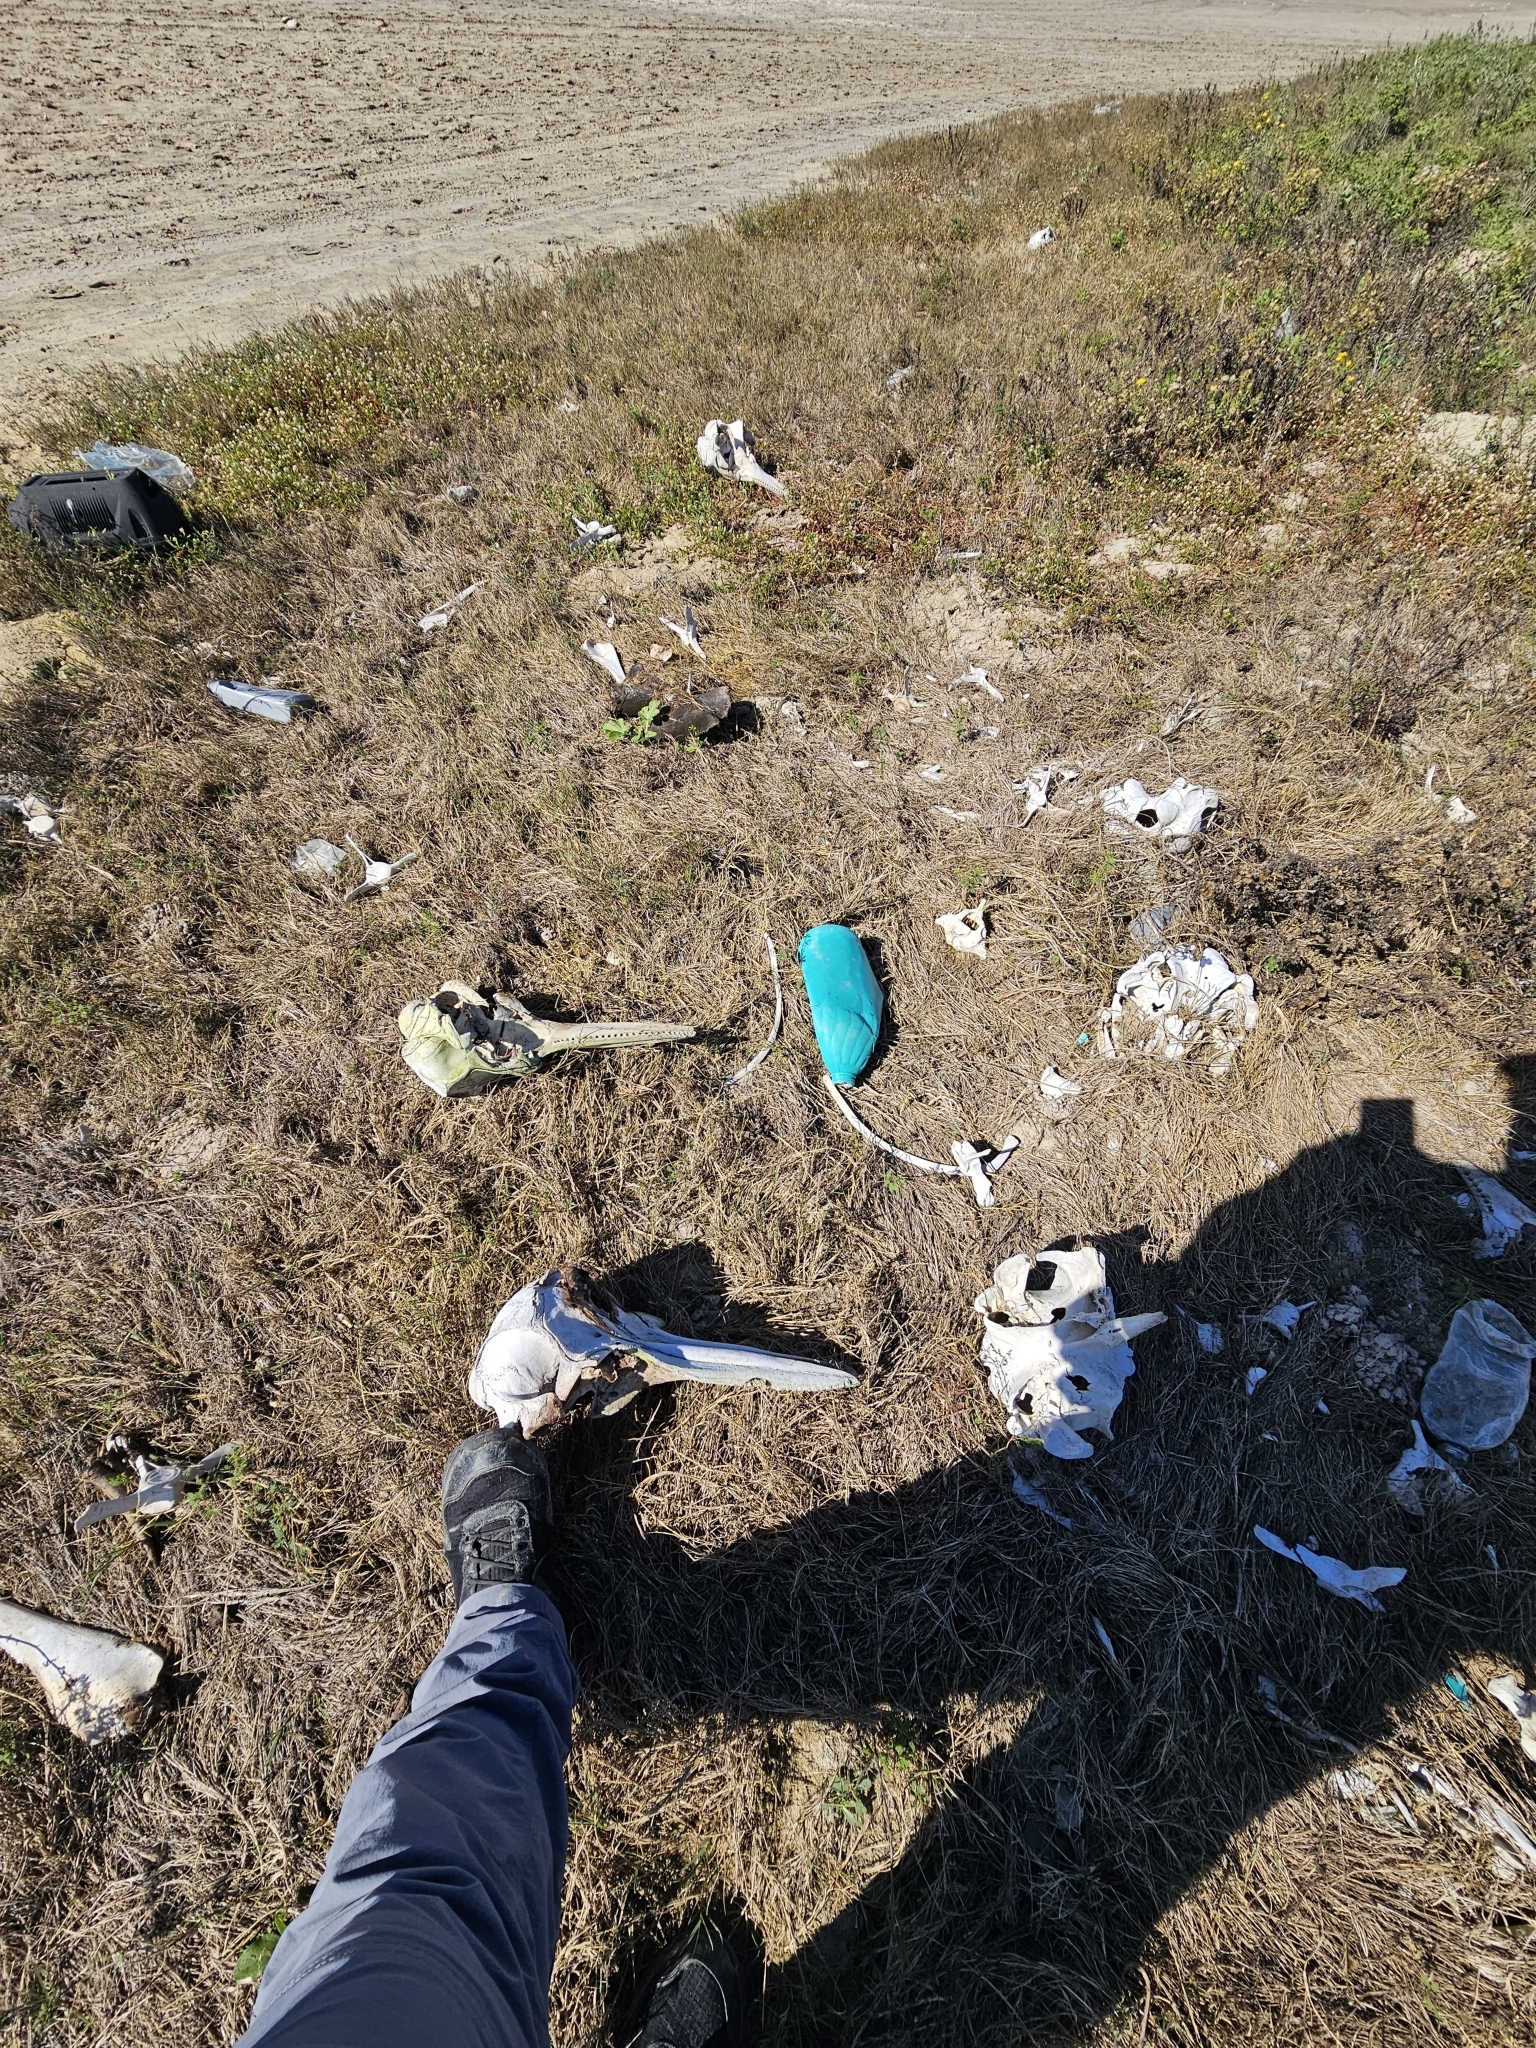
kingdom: Animalia
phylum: Chordata
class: Mammalia
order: Cetacea
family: Delphinidae
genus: Tursiops
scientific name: Tursiops truncatus
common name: Bottlenose dolphin
